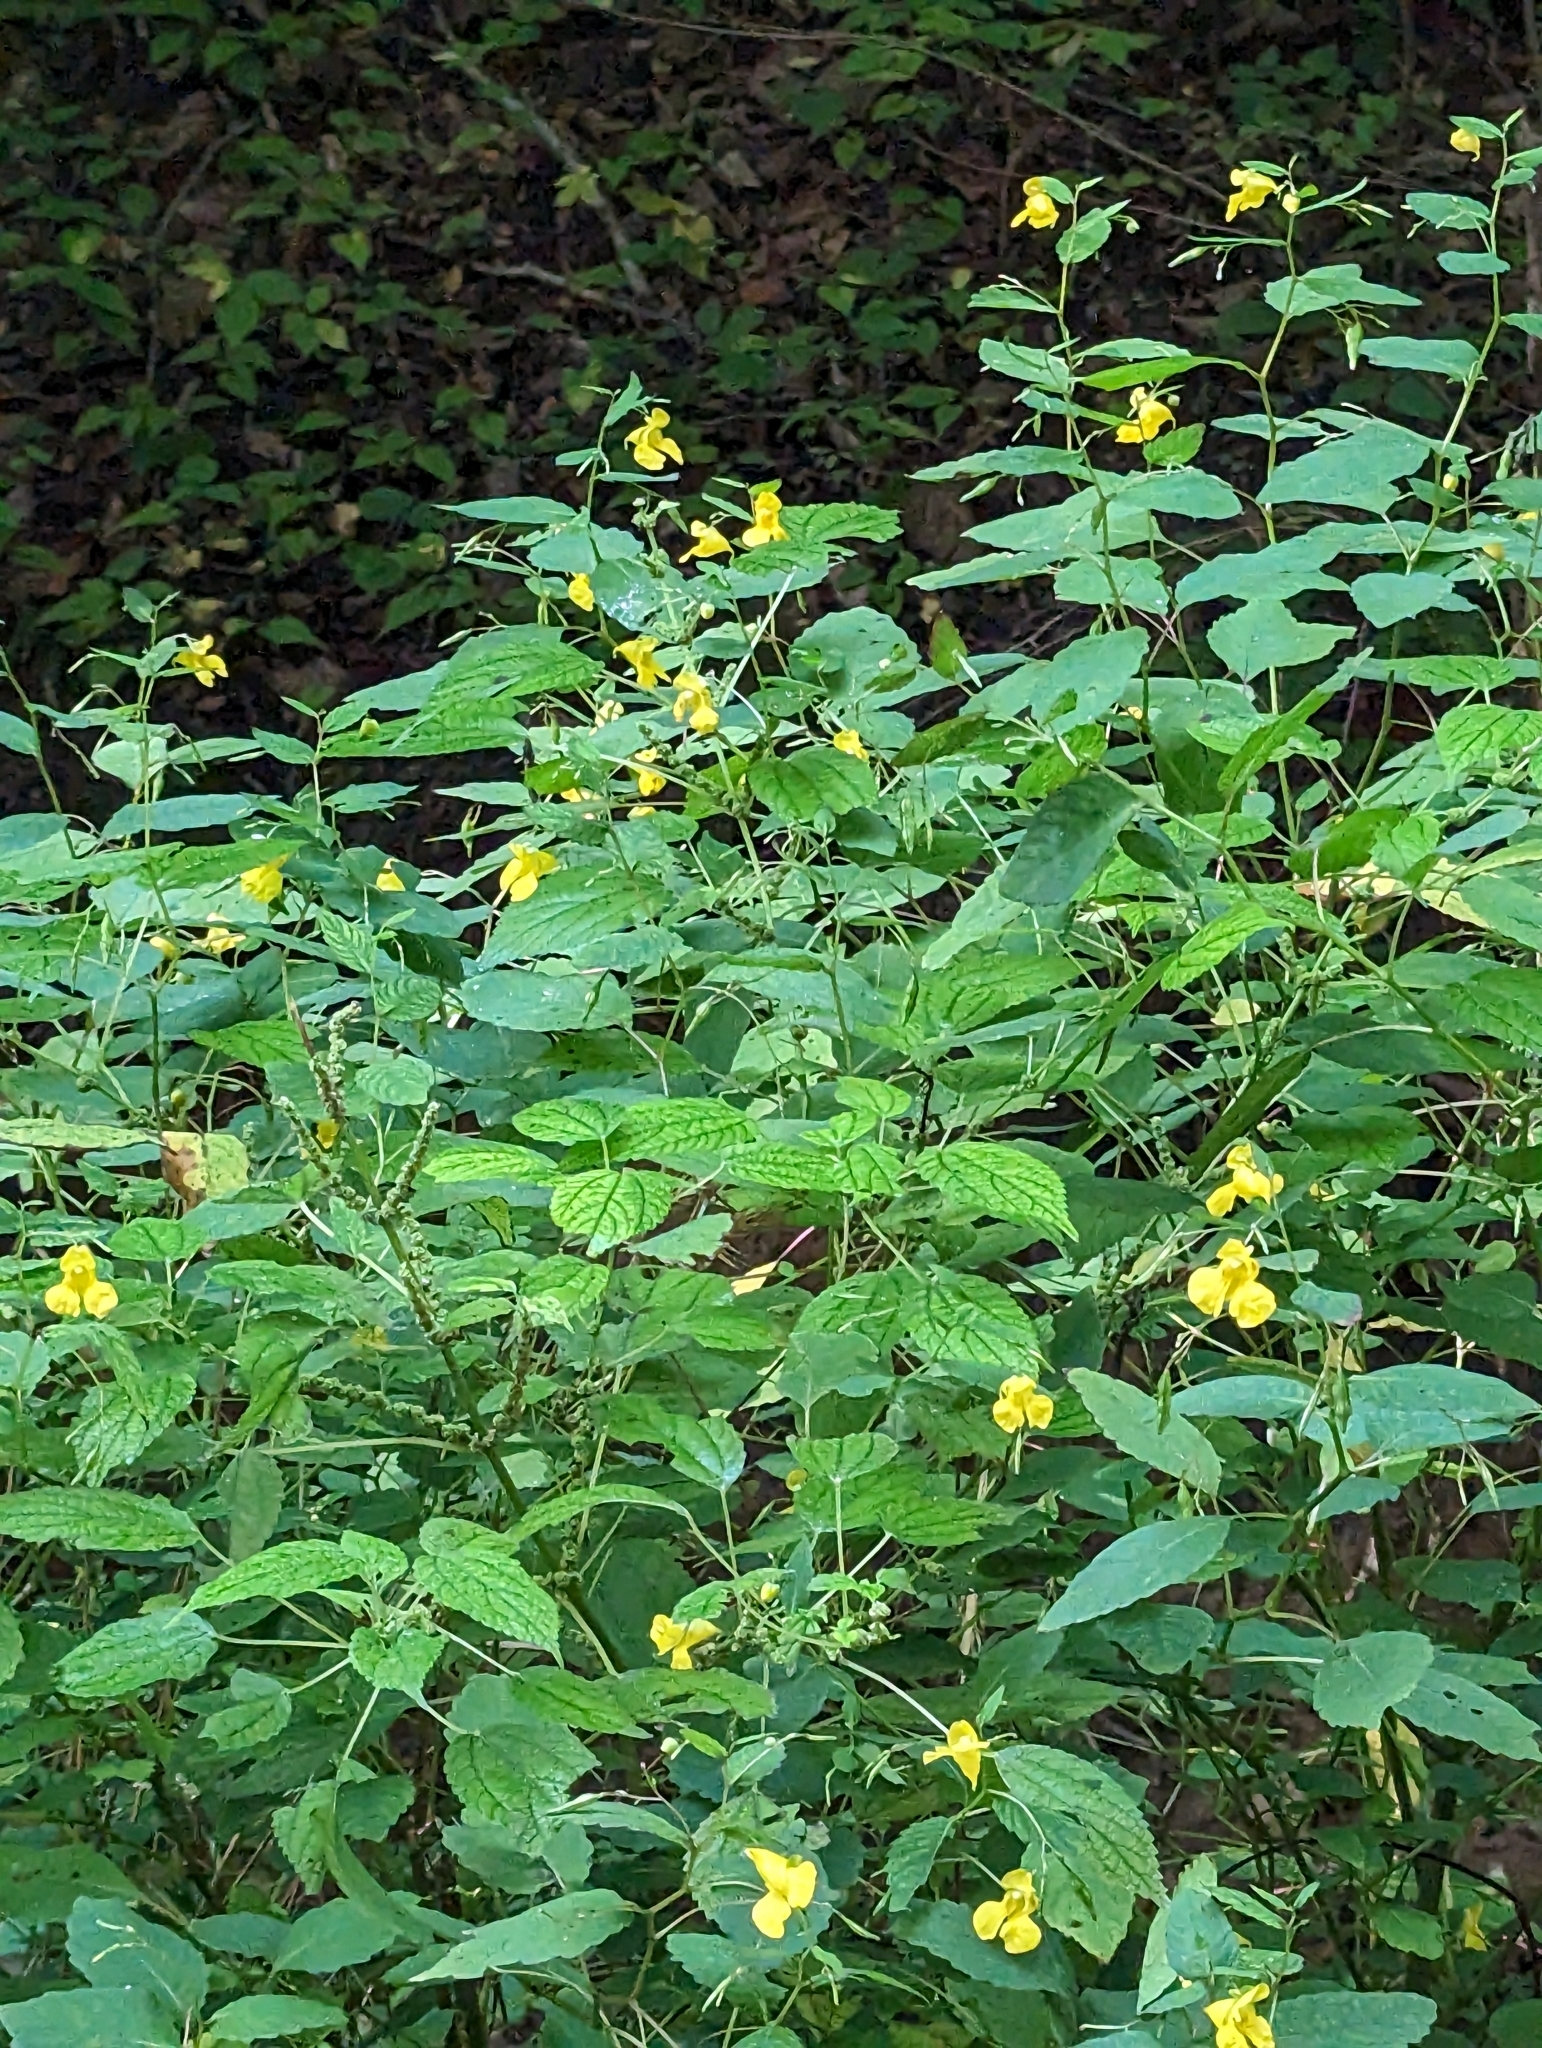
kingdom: Plantae
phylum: Tracheophyta
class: Magnoliopsida
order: Ericales
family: Balsaminaceae
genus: Impatiens
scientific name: Impatiens pallida
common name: Pale snapweed
